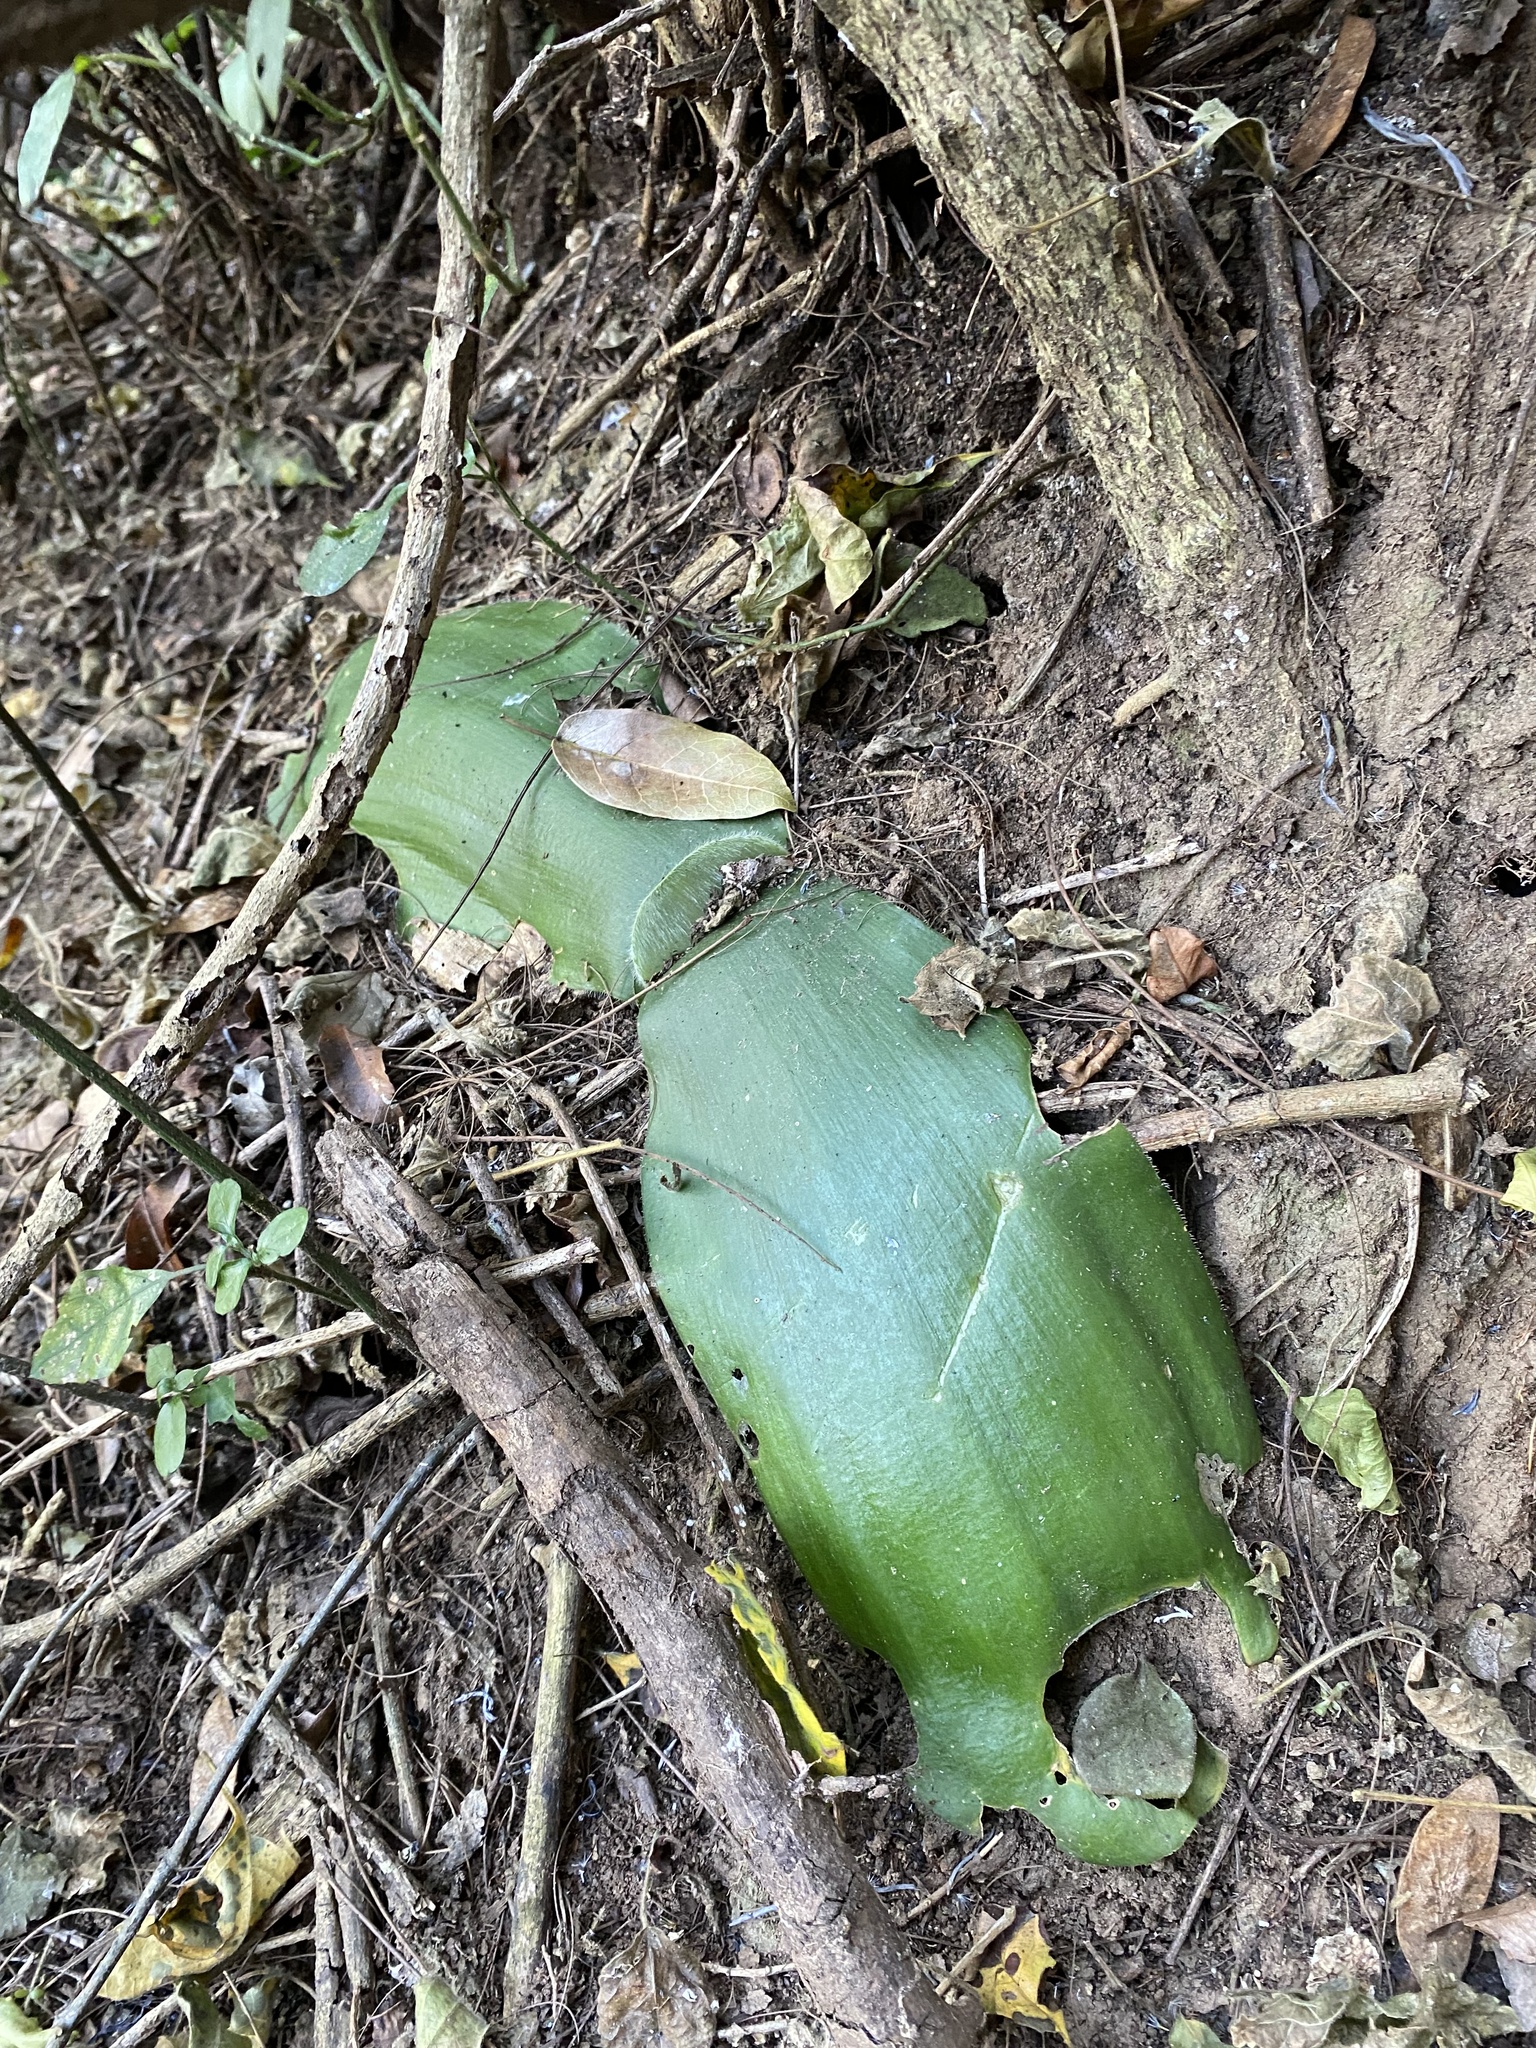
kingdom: Plantae
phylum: Tracheophyta
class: Liliopsida
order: Asparagales
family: Amaryllidaceae
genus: Haemanthus
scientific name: Haemanthus deformis
